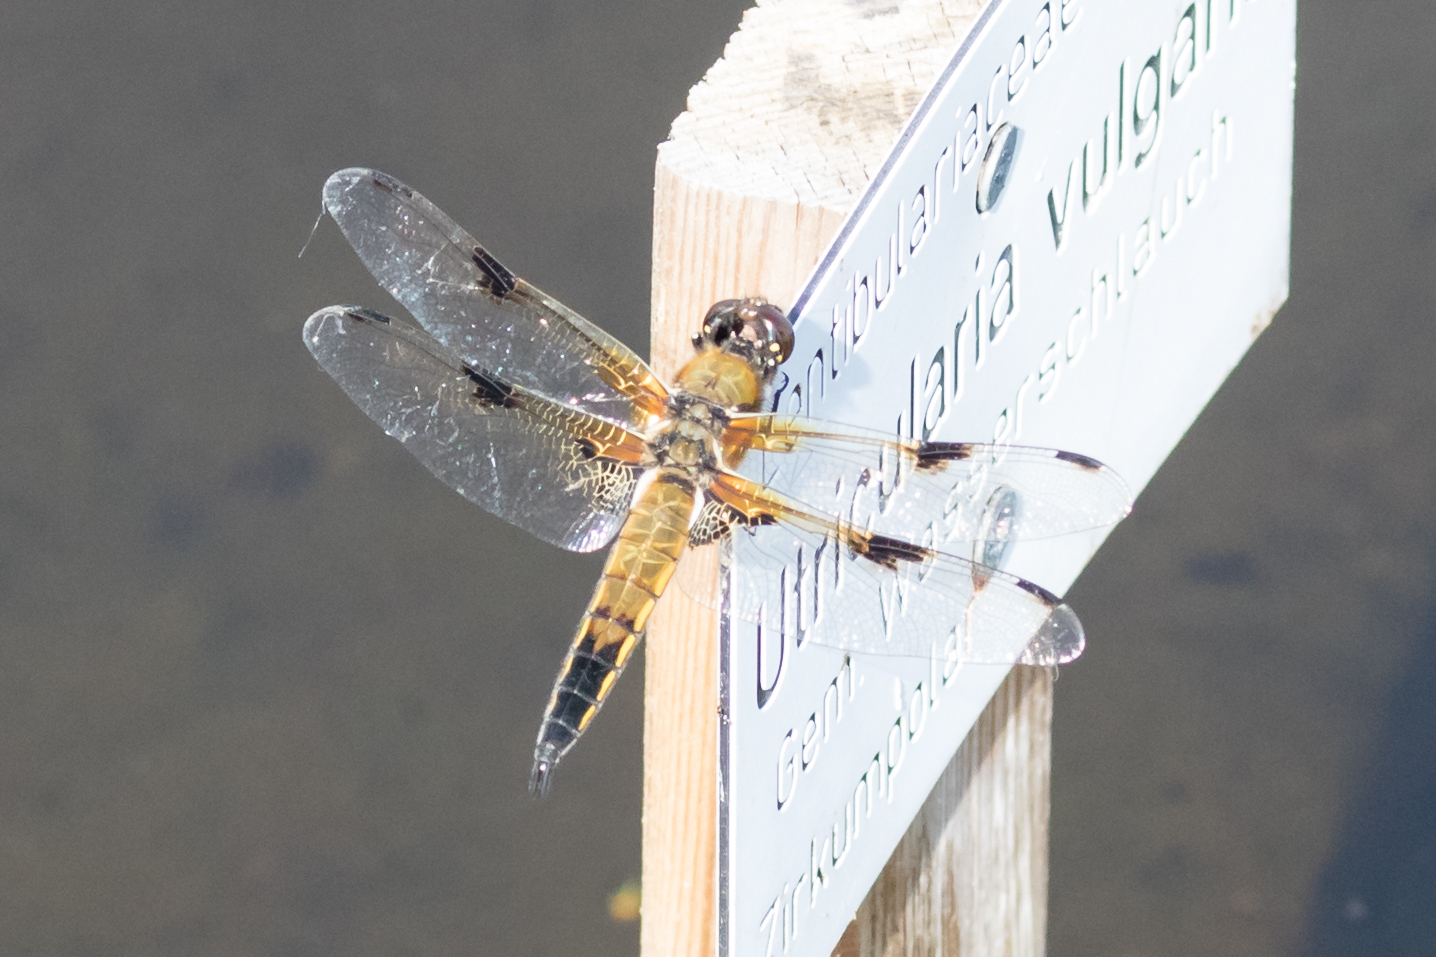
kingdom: Animalia
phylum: Arthropoda
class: Insecta
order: Odonata
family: Libellulidae
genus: Libellula
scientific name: Libellula quadrimaculata
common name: Four-spotted chaser
